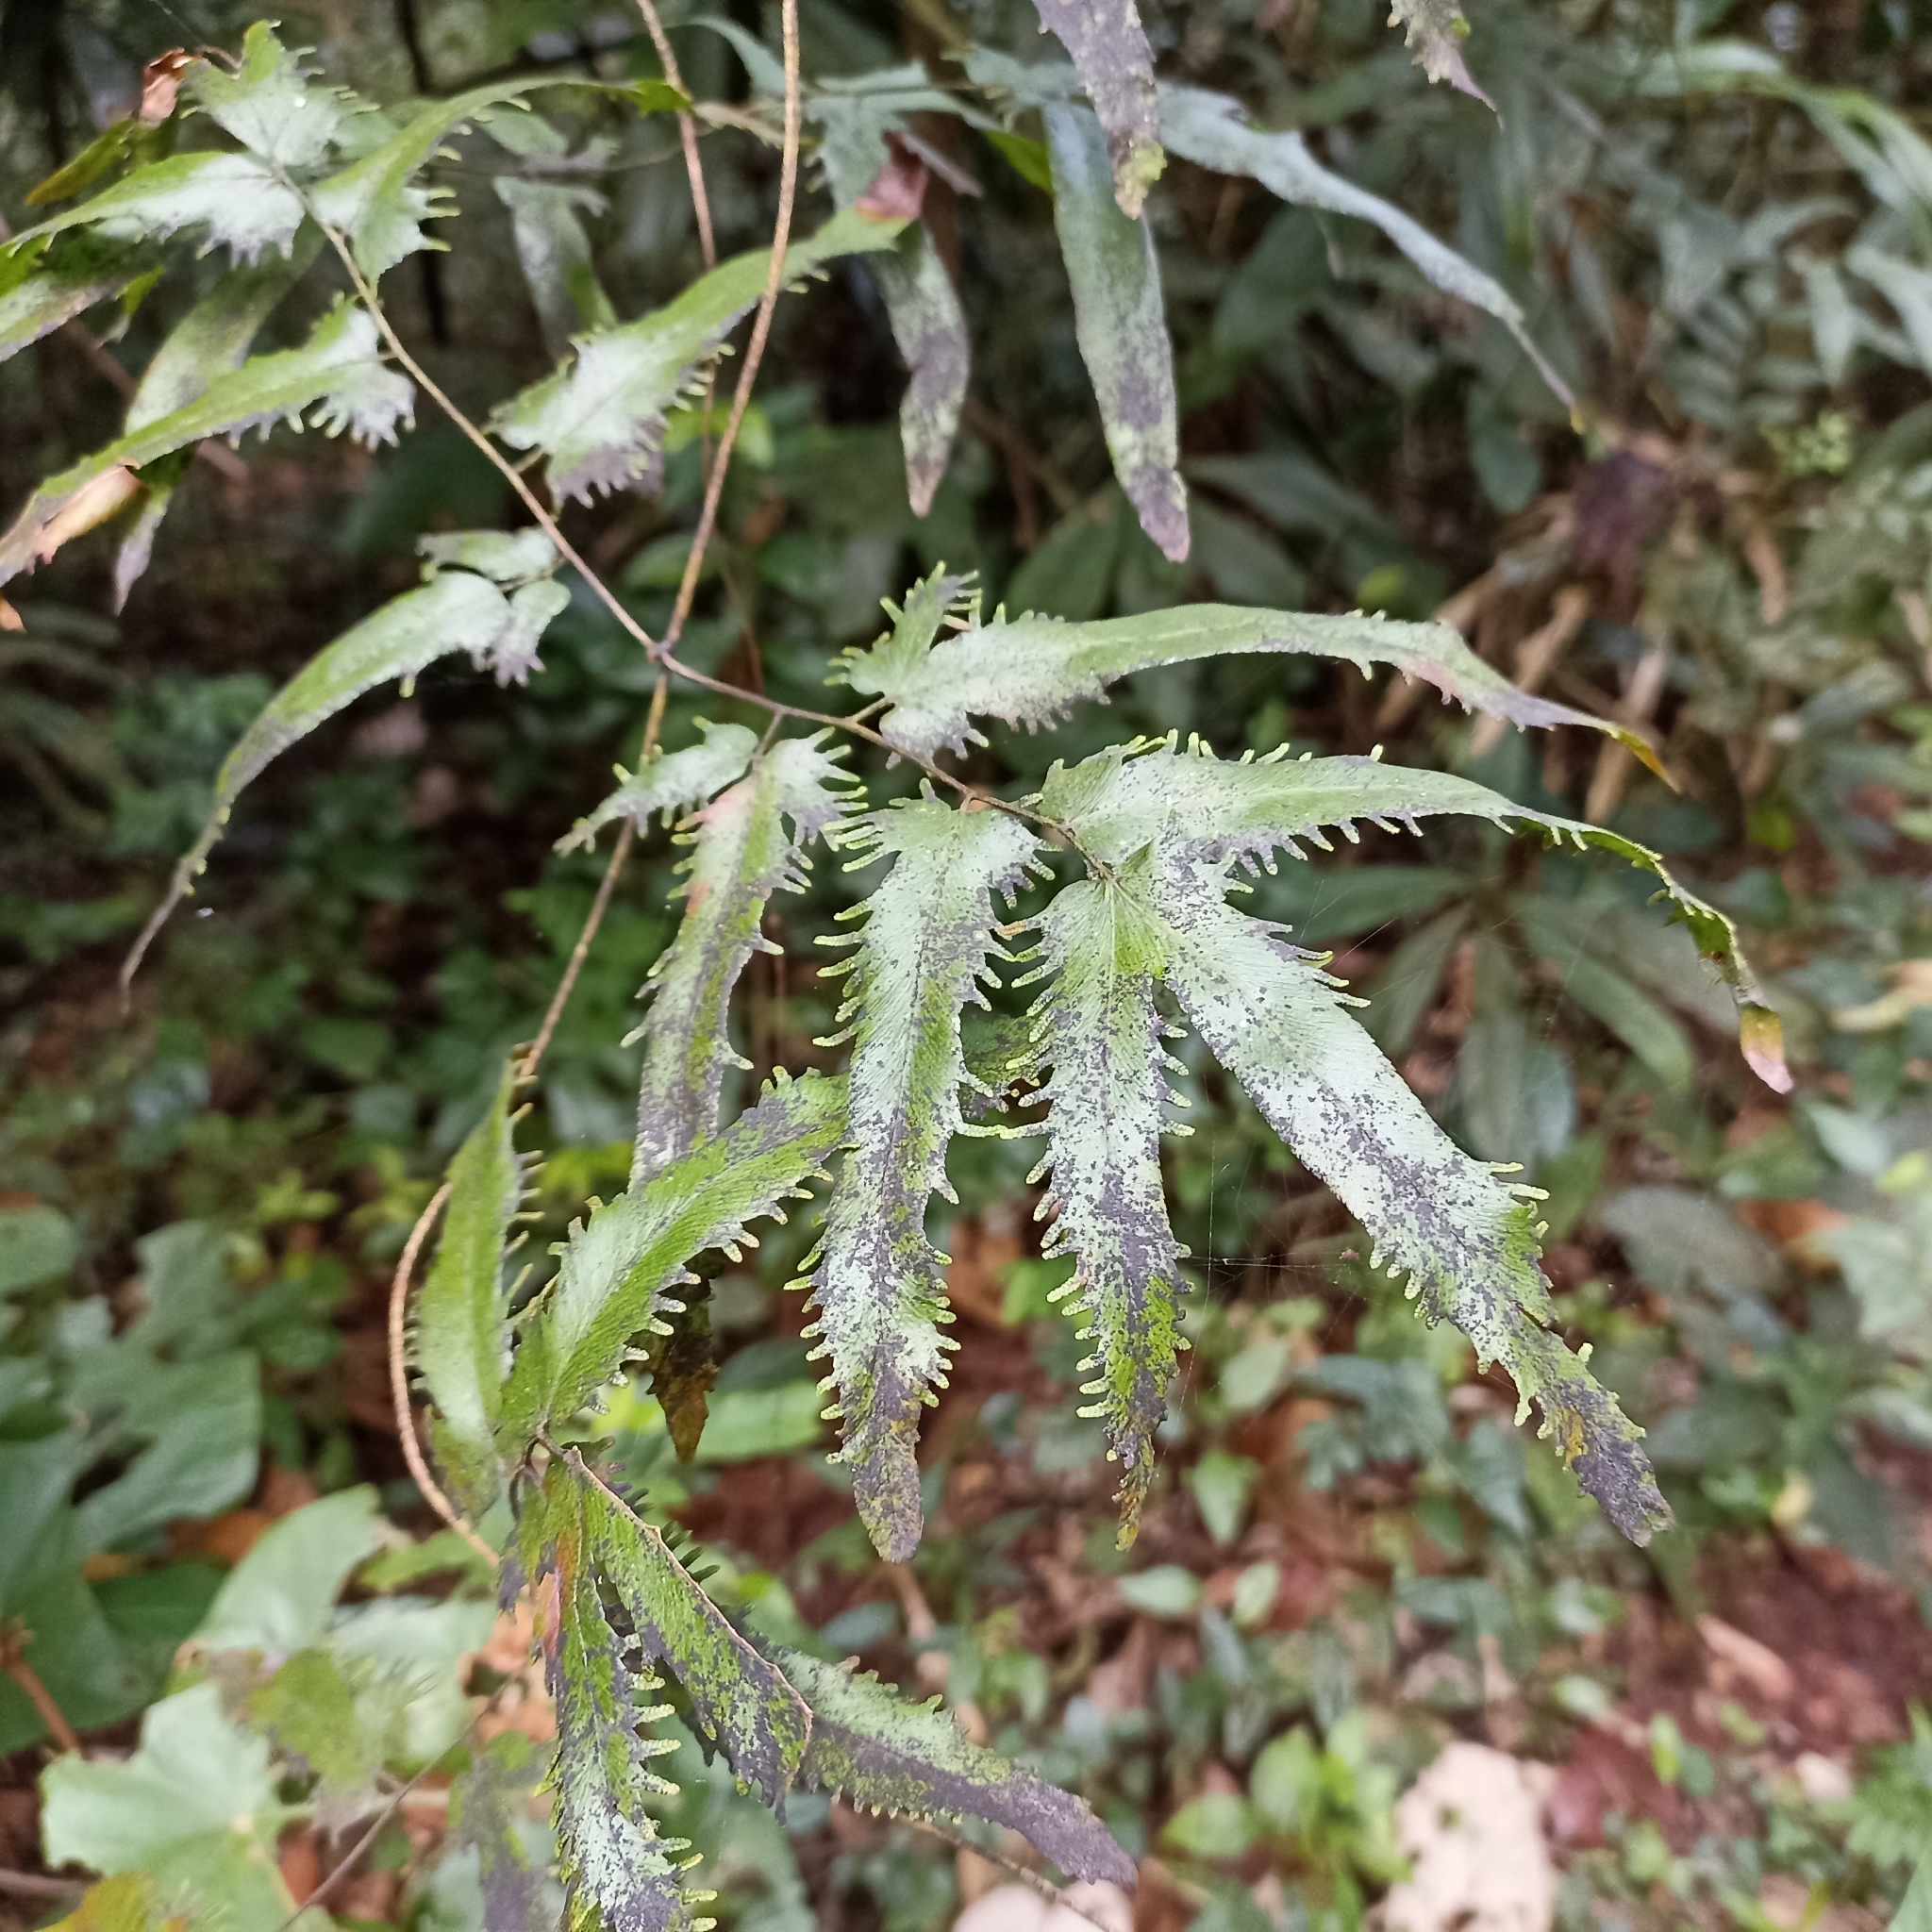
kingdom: Plantae
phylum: Tracheophyta
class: Polypodiopsida
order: Schizaeales
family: Lygodiaceae
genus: Lygodium
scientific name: Lygodium flexuosum
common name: Maidenhair creeper
